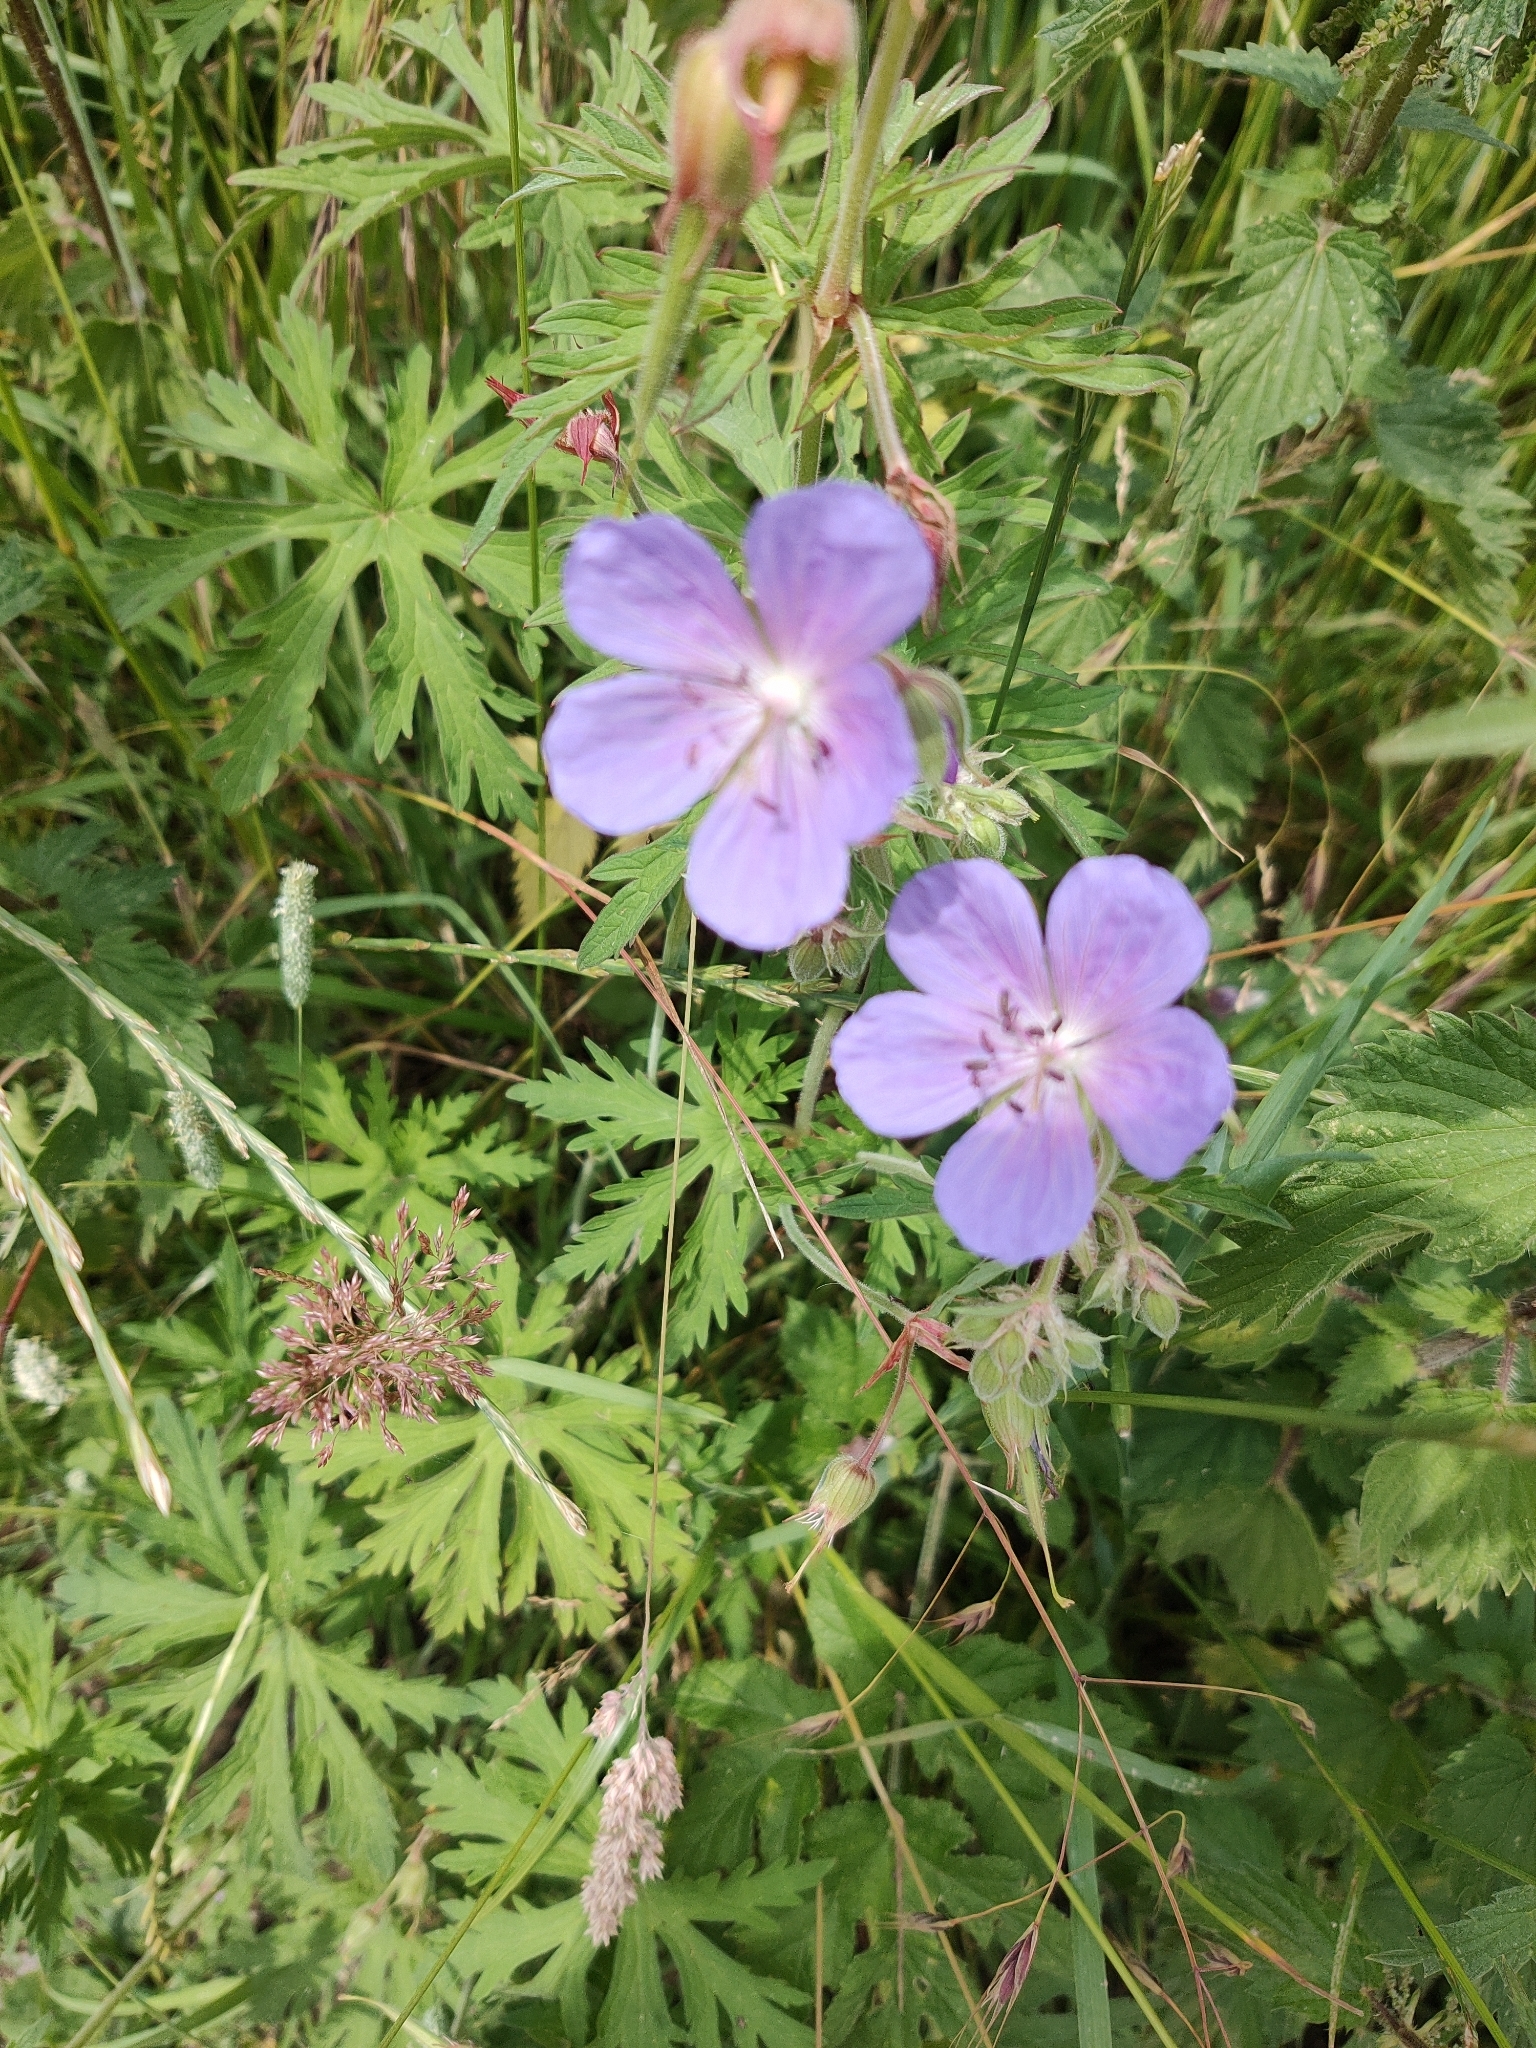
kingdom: Plantae
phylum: Tracheophyta
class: Magnoliopsida
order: Geraniales
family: Geraniaceae
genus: Geranium
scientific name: Geranium pratense
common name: Meadow crane's-bill
